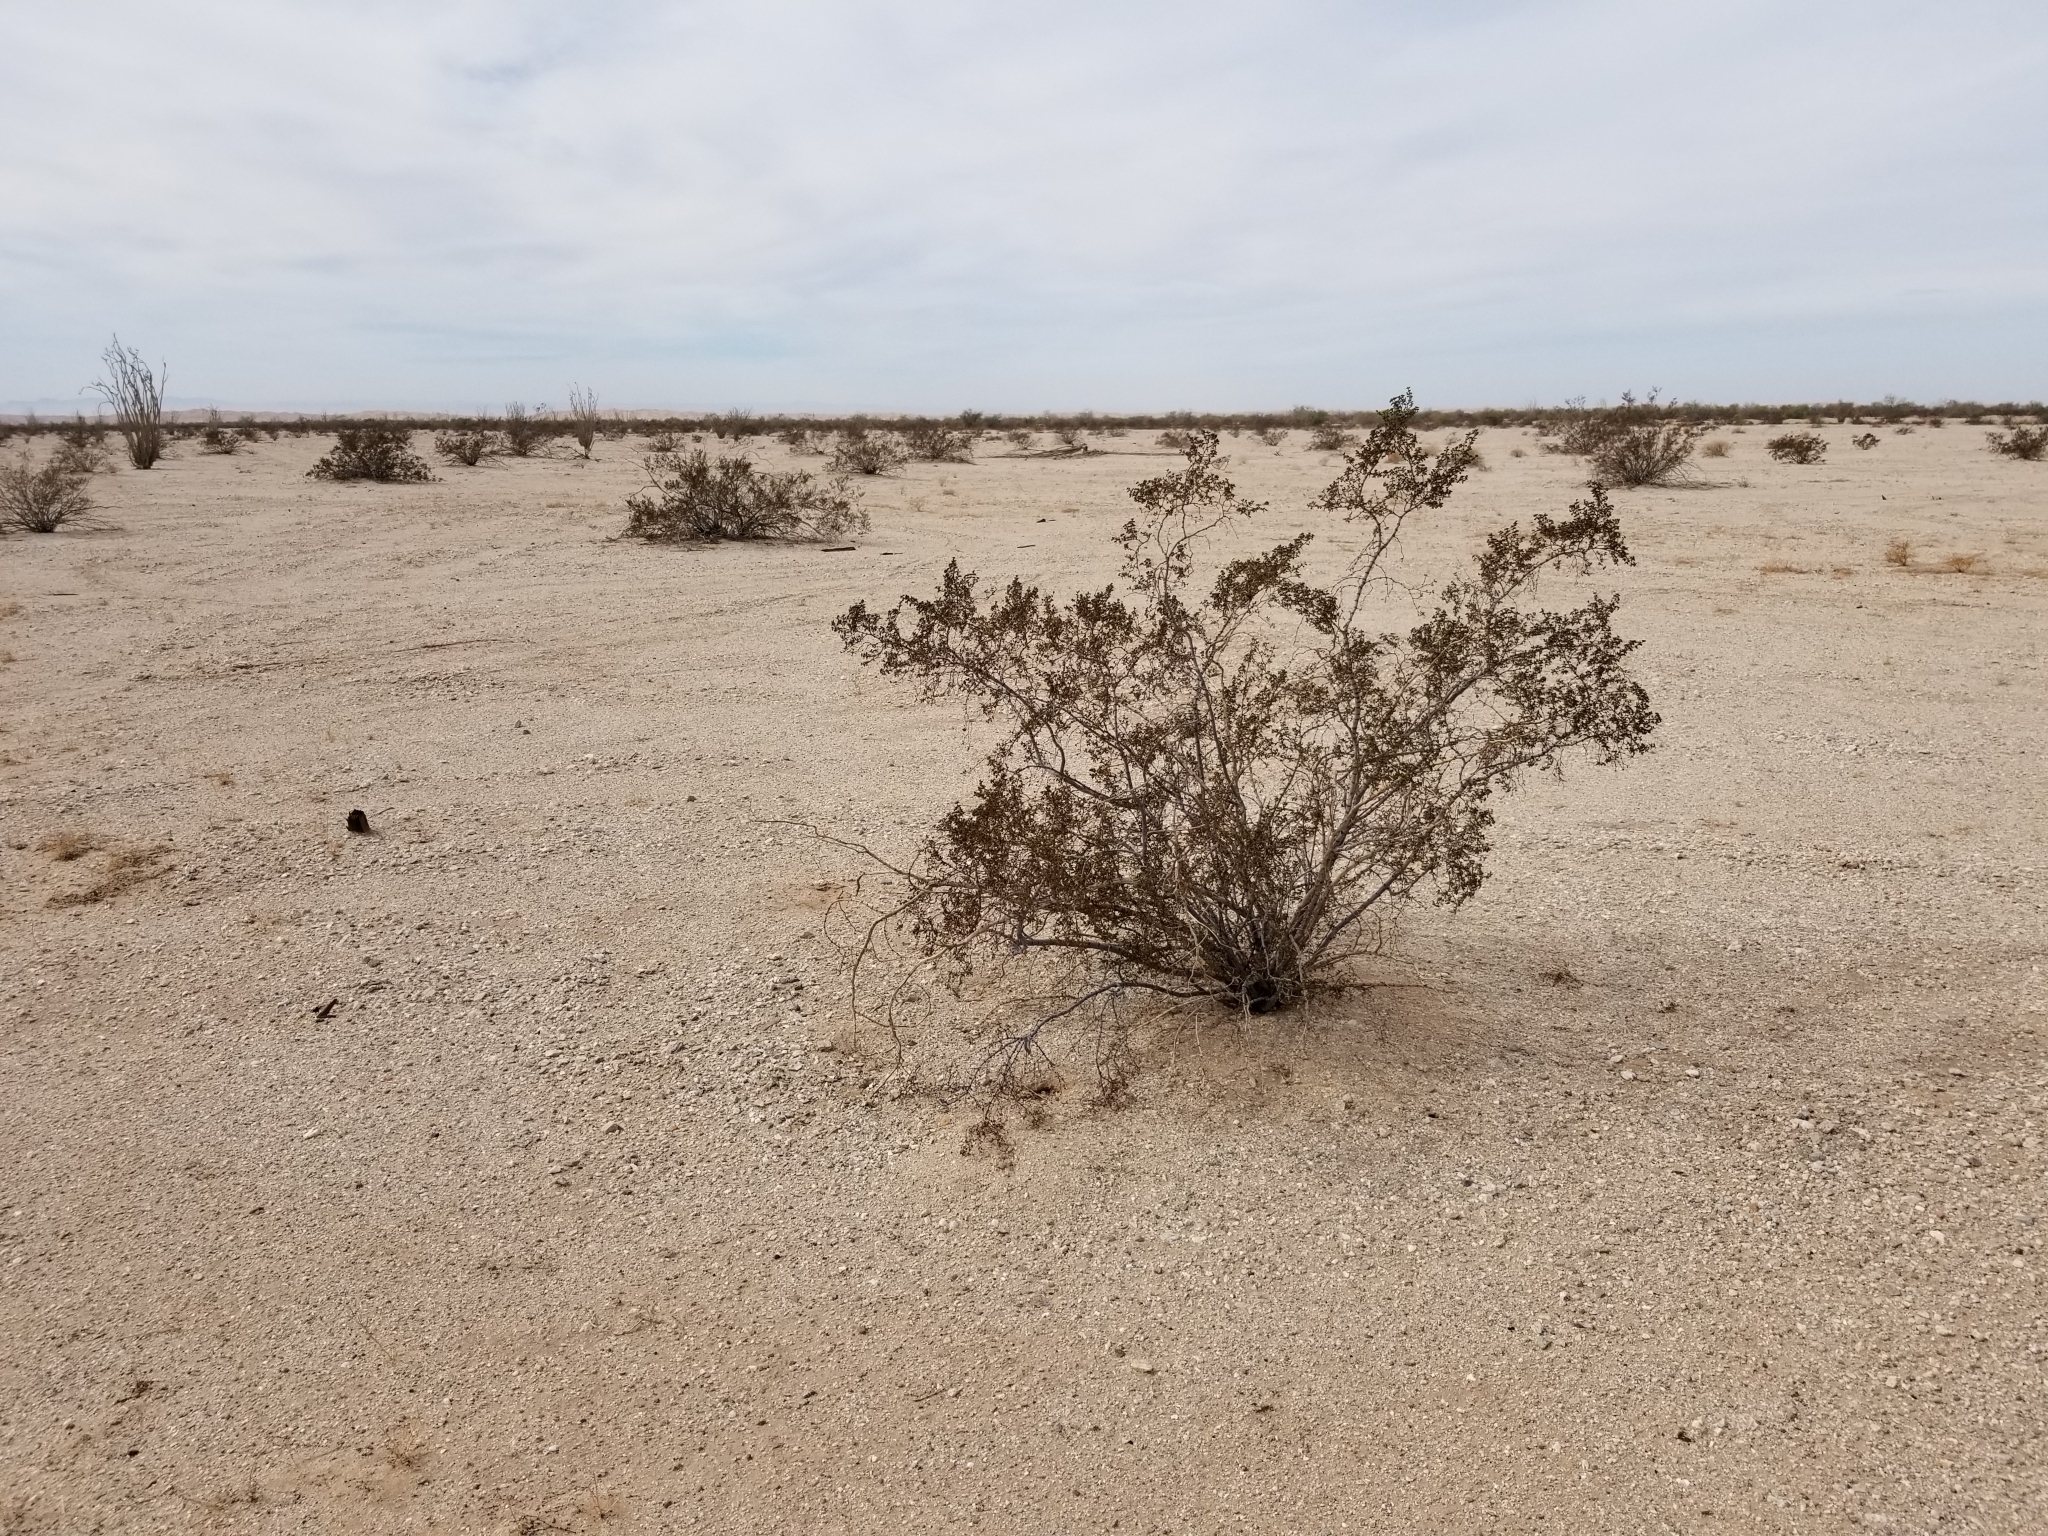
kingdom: Plantae
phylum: Tracheophyta
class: Magnoliopsida
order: Zygophyllales
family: Zygophyllaceae
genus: Larrea
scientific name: Larrea tridentata
